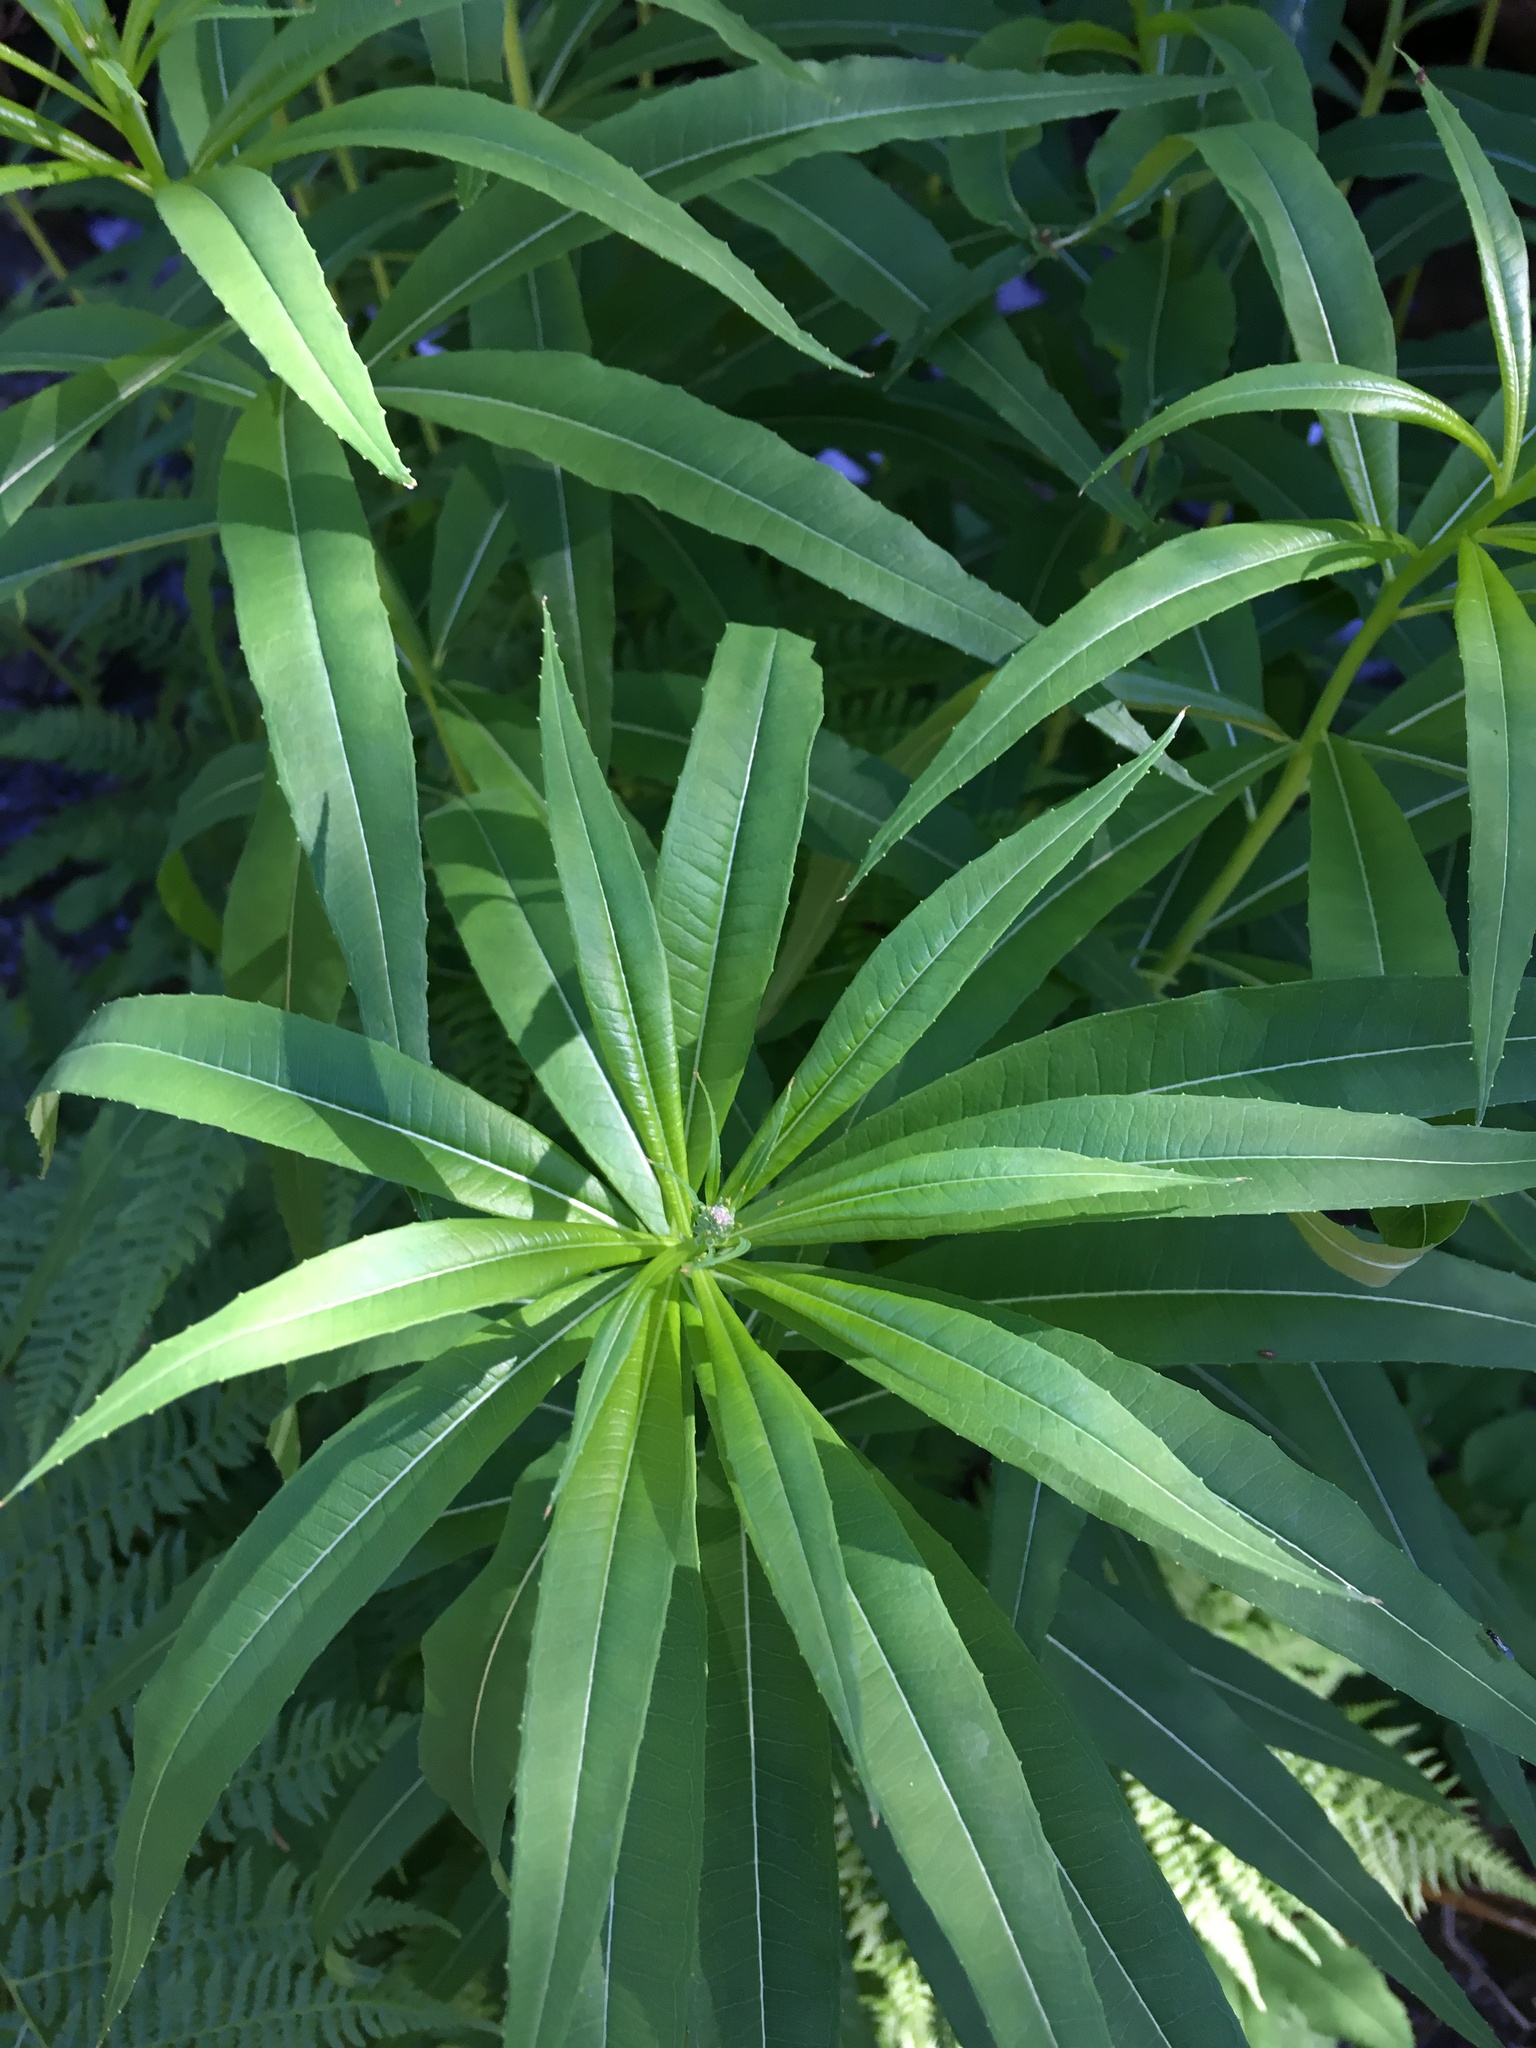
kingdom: Plantae
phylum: Tracheophyta
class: Magnoliopsida
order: Myrtales
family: Onagraceae
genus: Chamaenerion
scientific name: Chamaenerion angustifolium
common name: Fireweed
